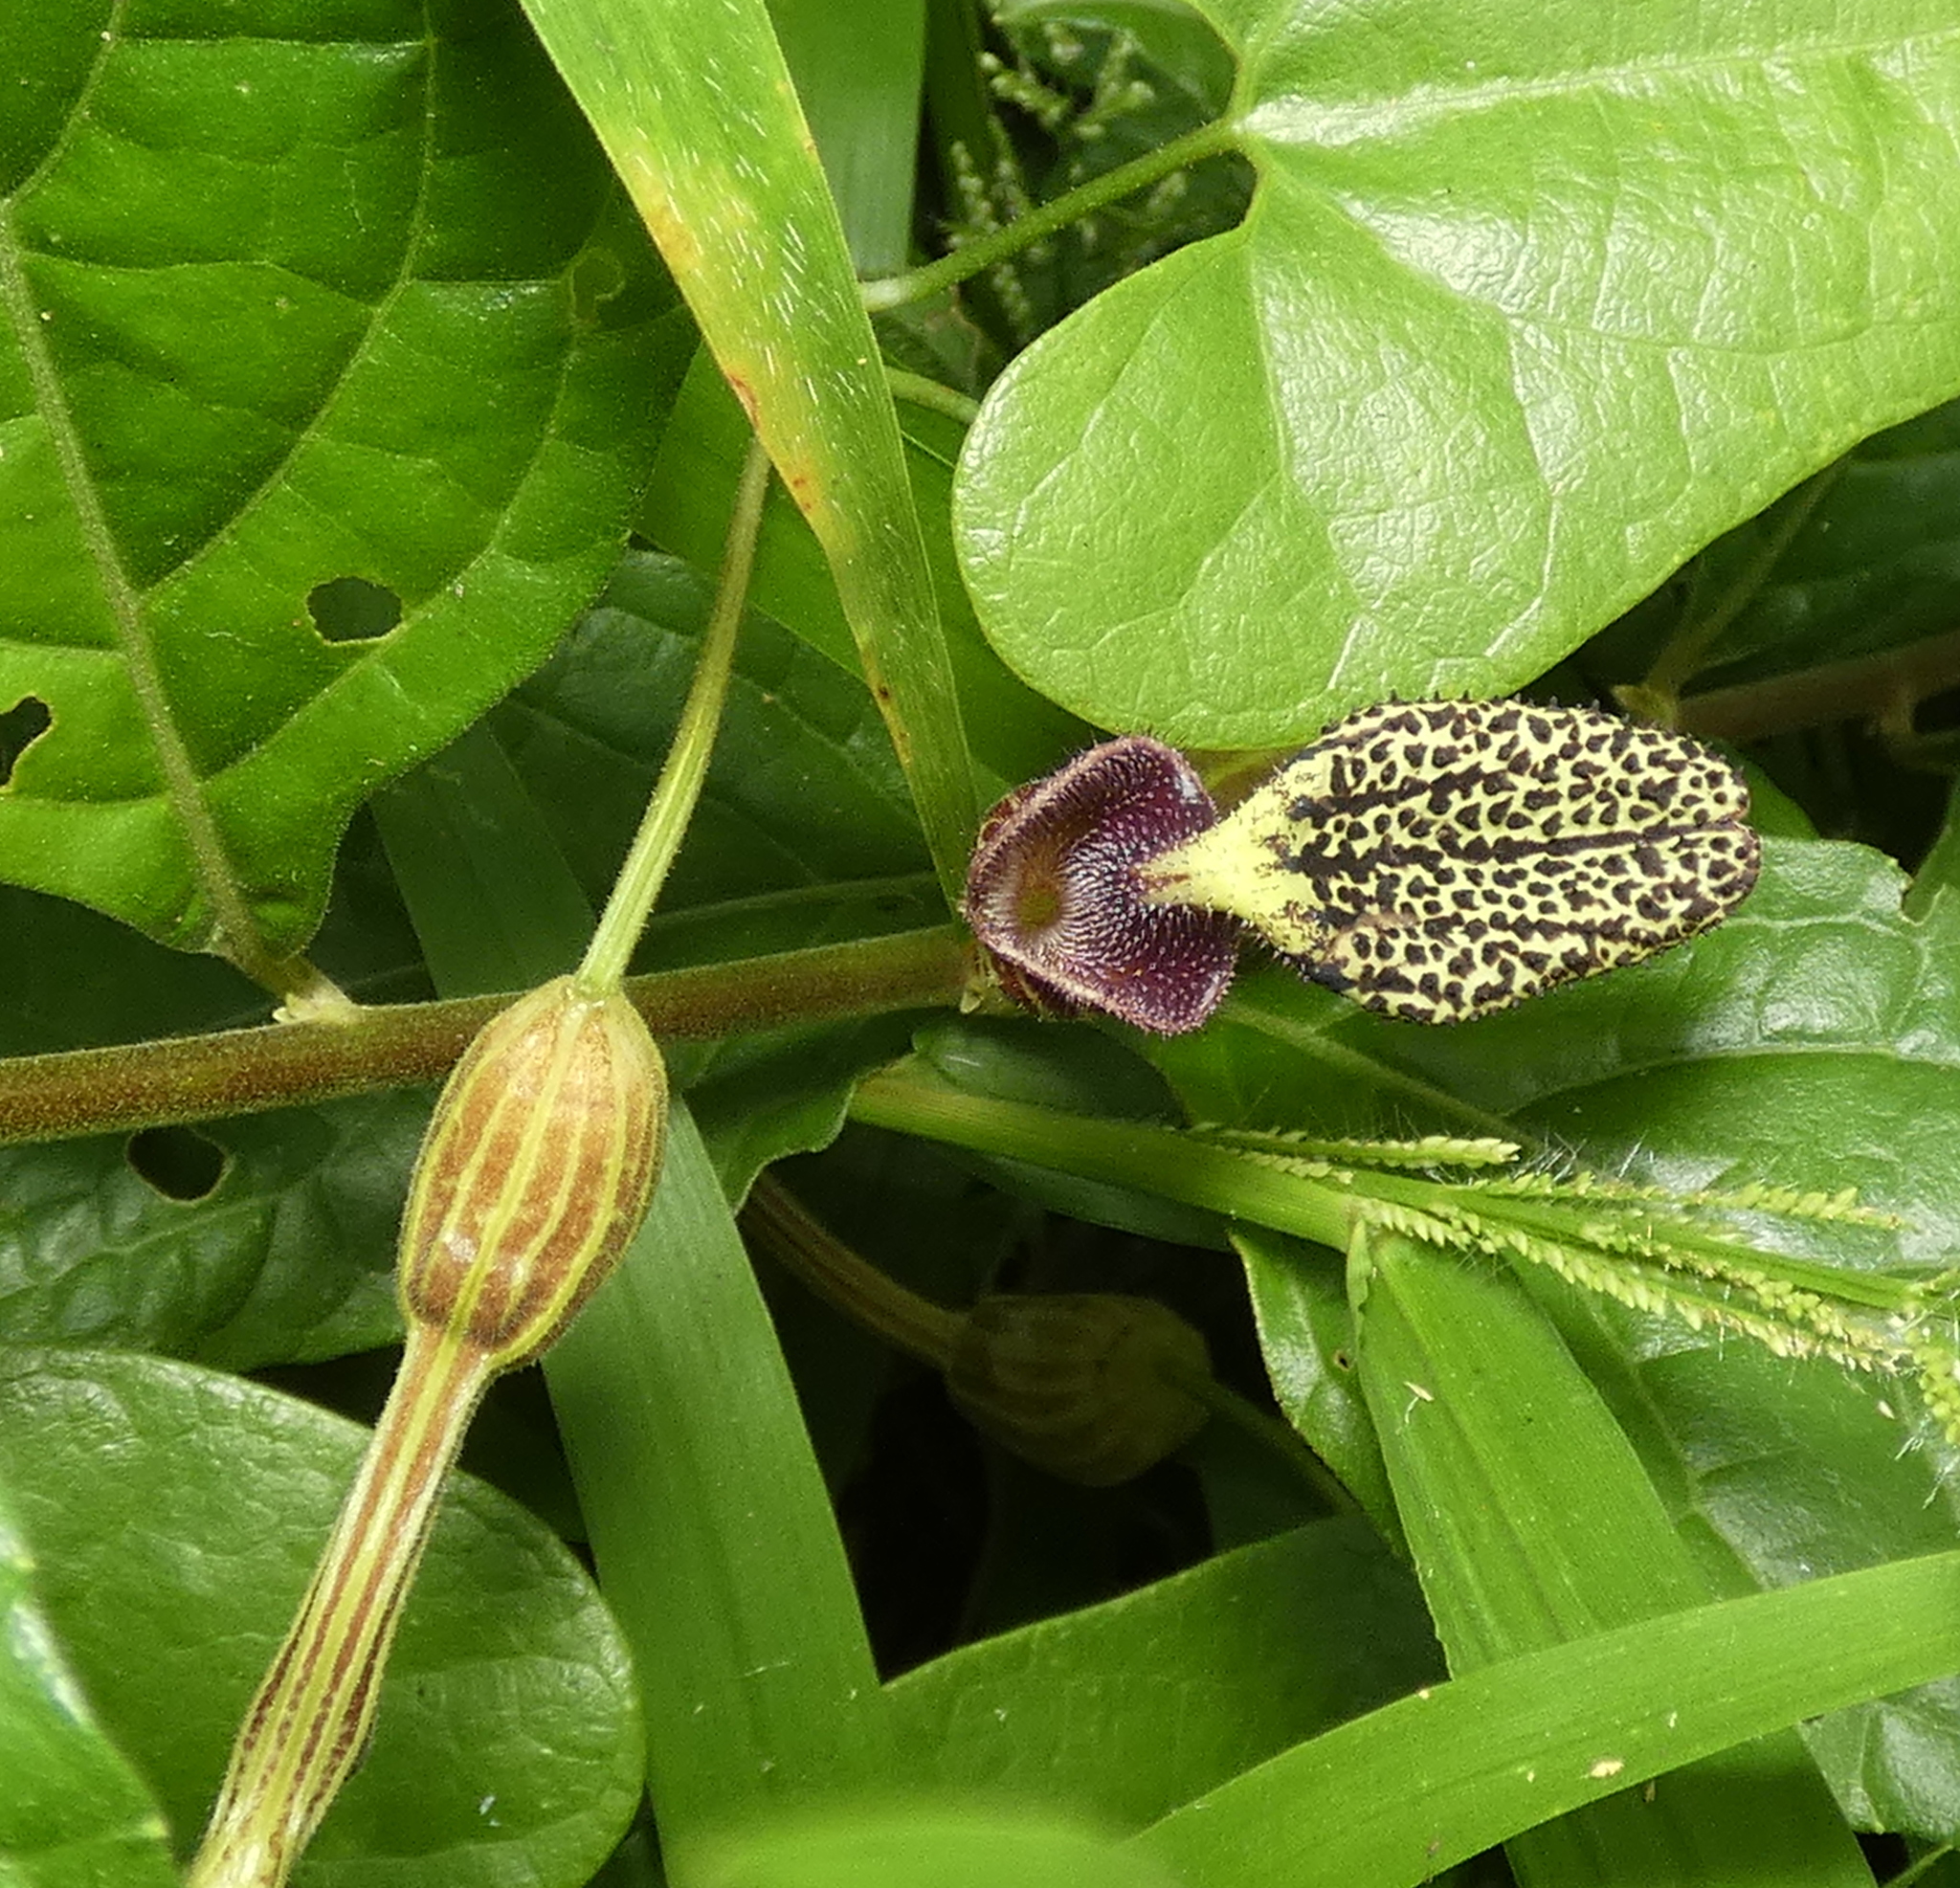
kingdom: Plantae
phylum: Tracheophyta
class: Magnoliopsida
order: Piperales
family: Aristolochiaceae
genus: Aristolochia
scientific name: Aristolochia papillaris
